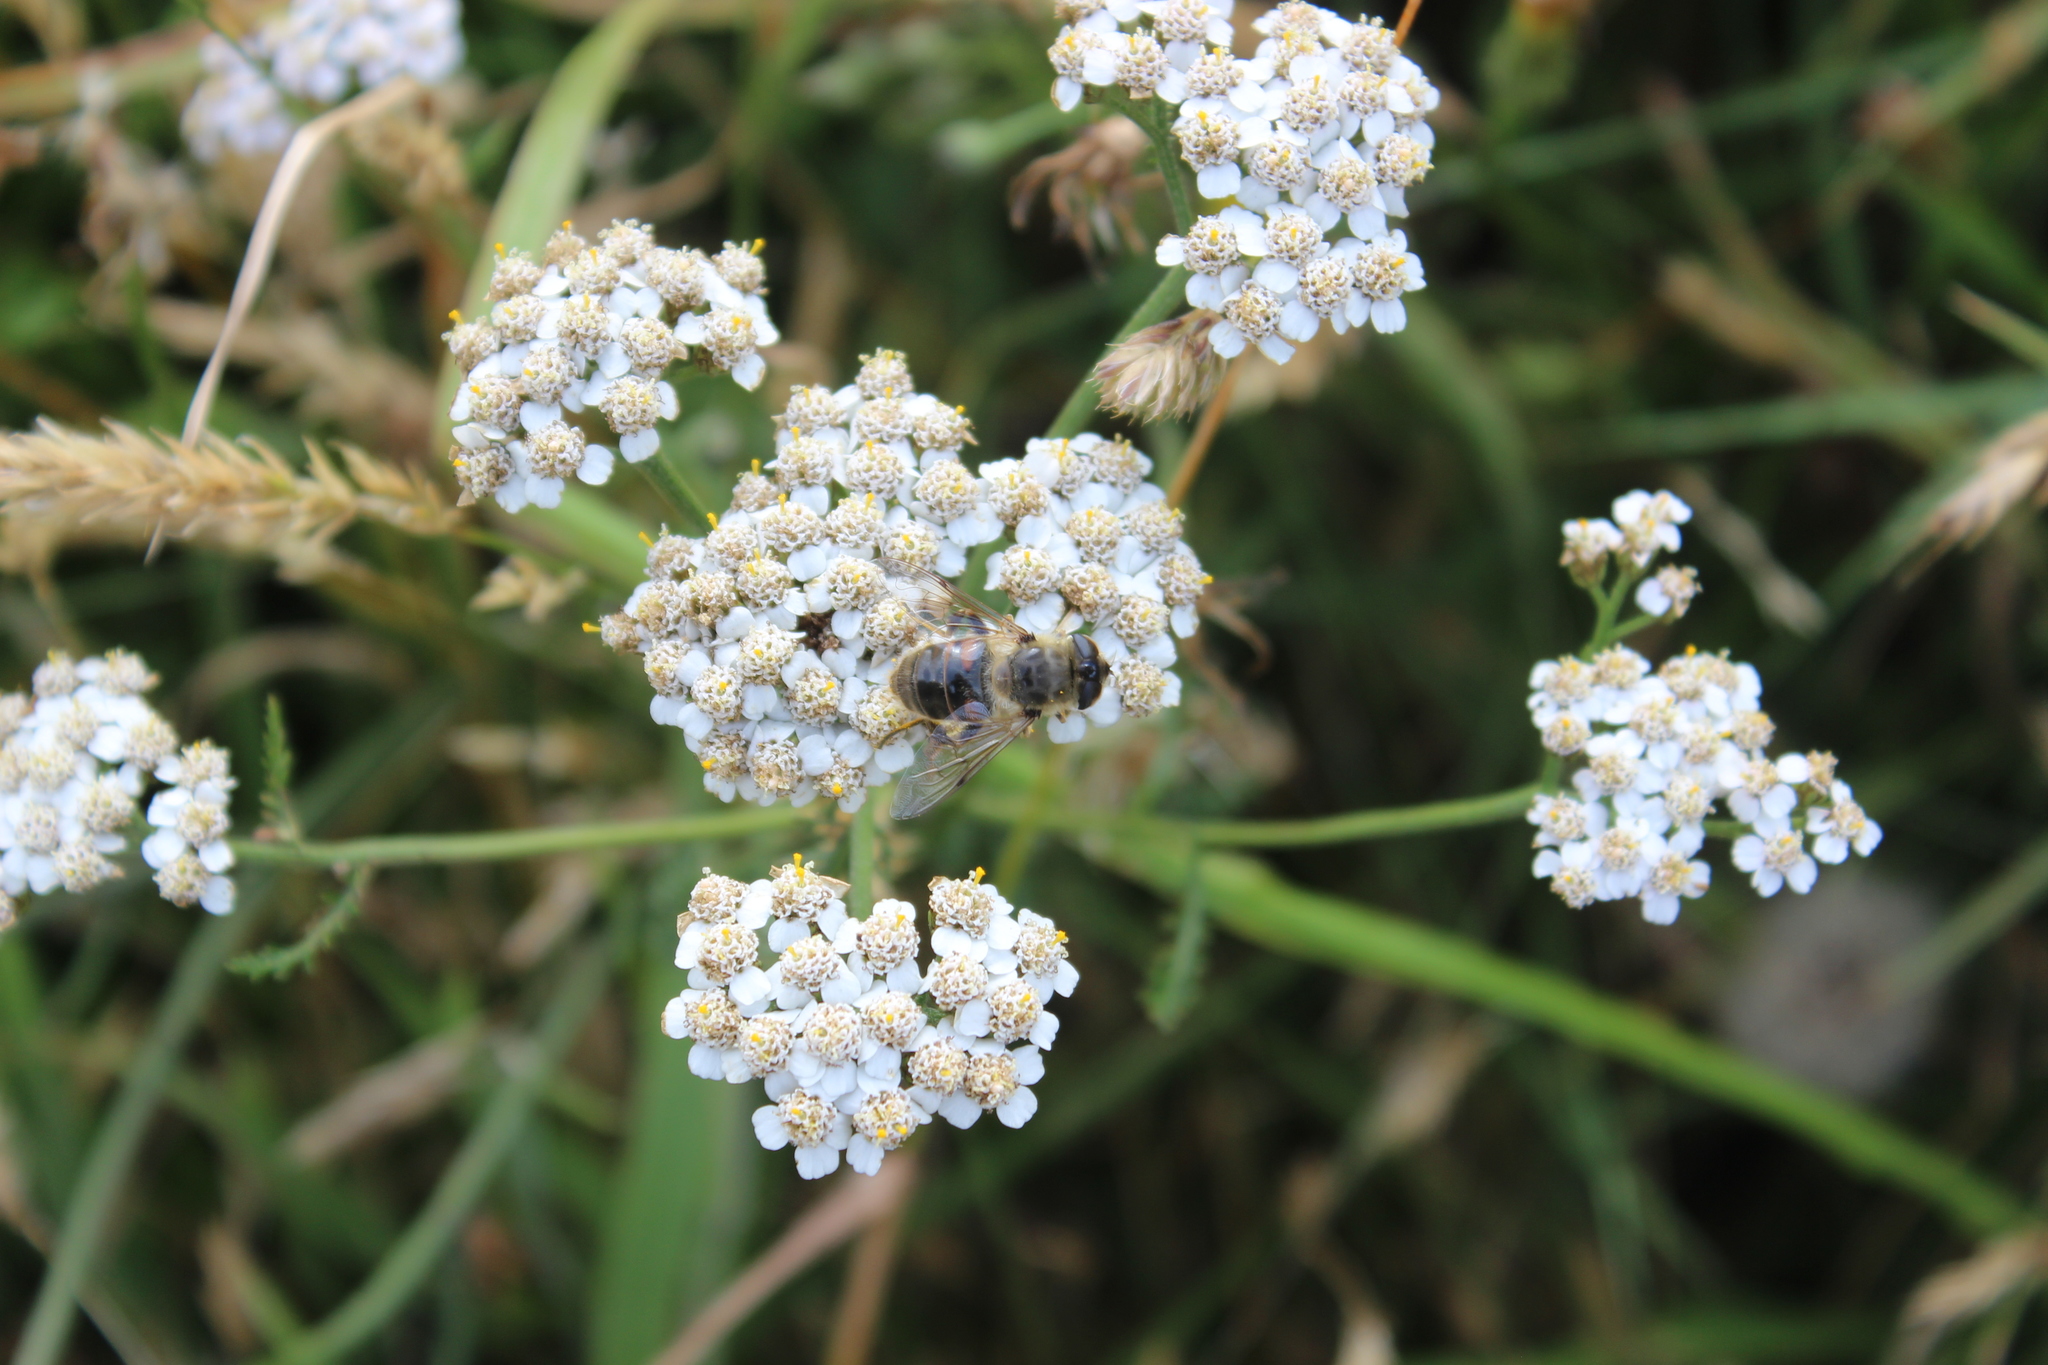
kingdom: Plantae
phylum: Tracheophyta
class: Magnoliopsida
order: Asterales
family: Asteraceae
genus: Achillea
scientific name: Achillea millefolium
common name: Yarrow
